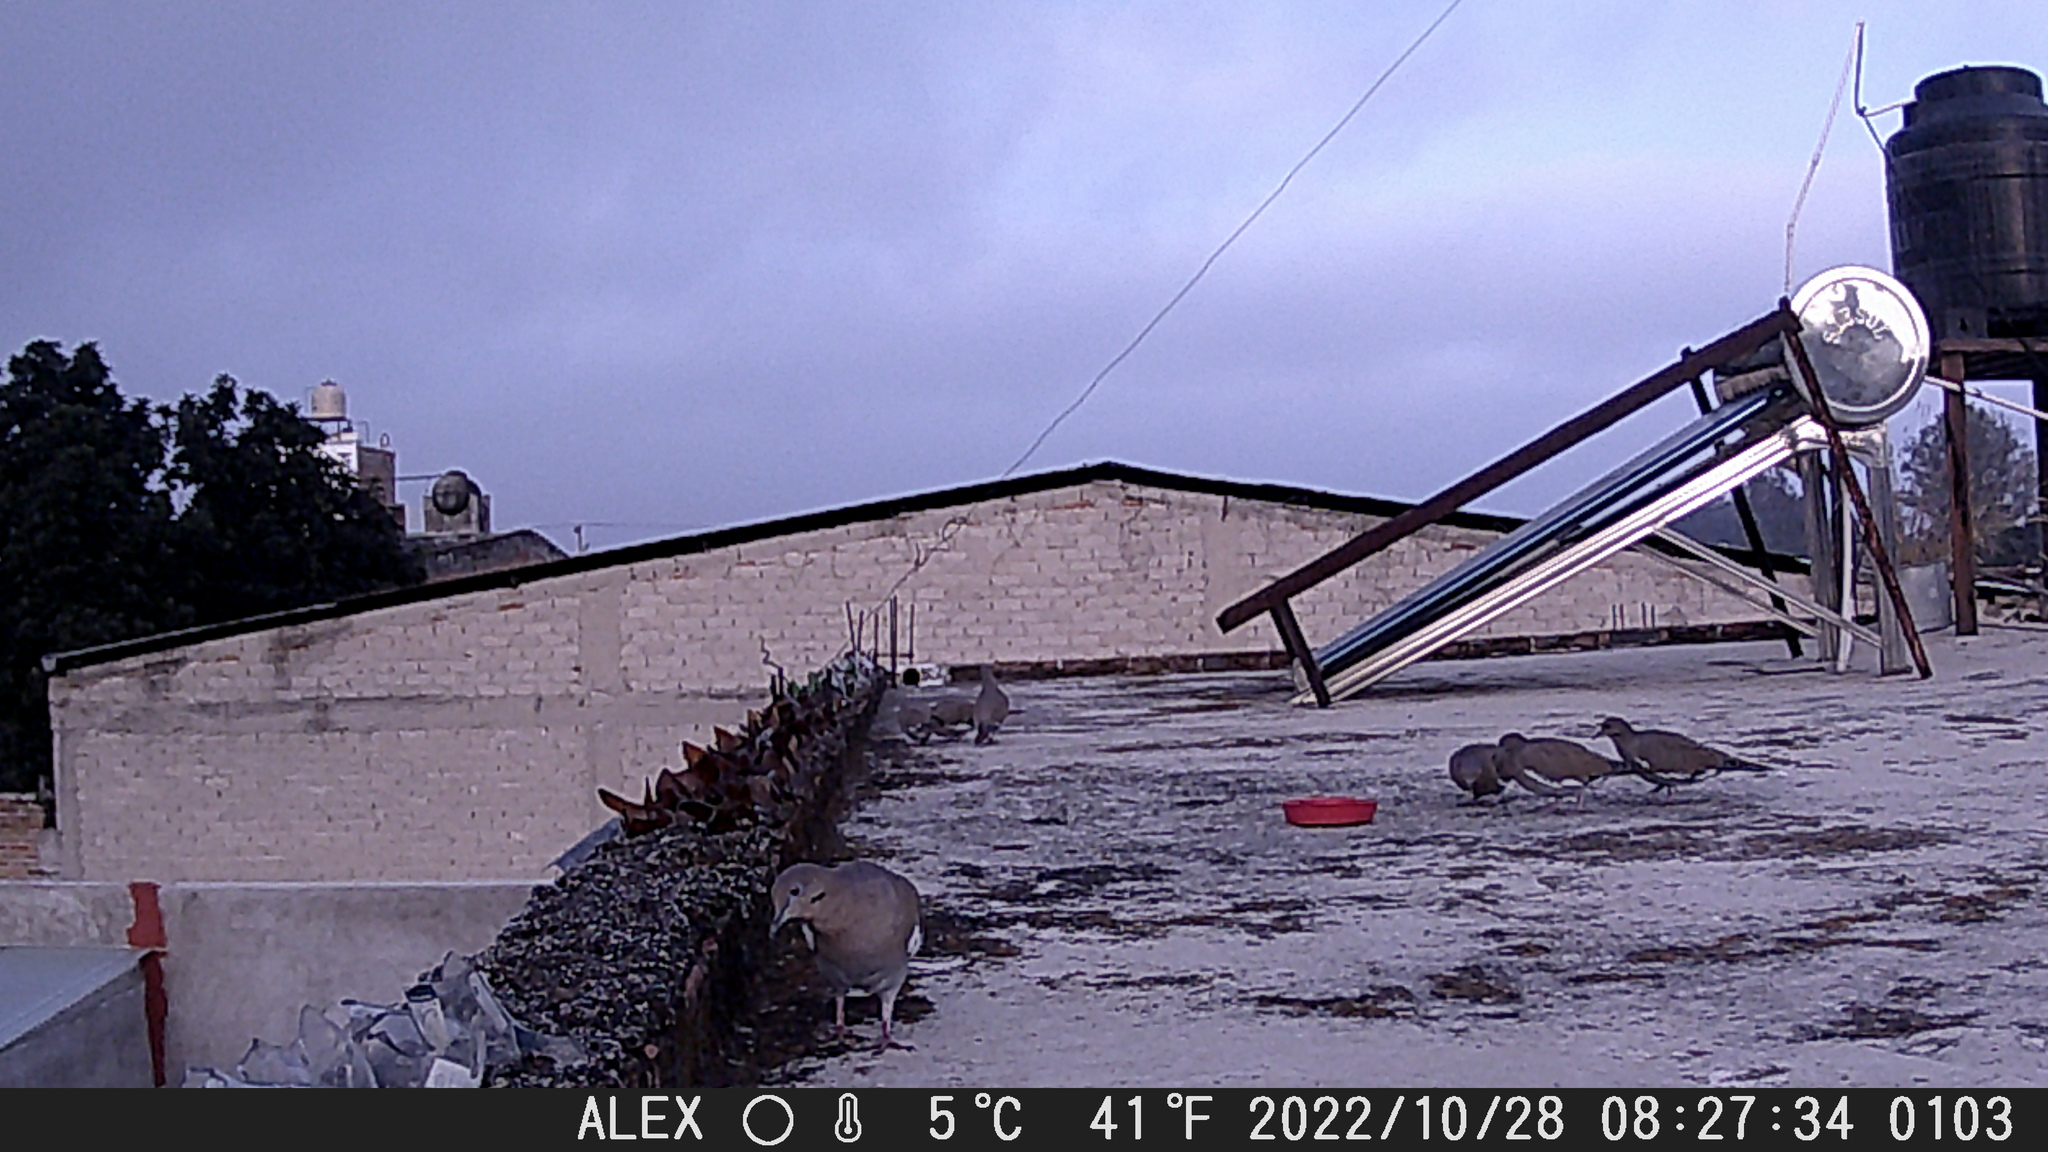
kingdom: Animalia
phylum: Chordata
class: Aves
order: Columbiformes
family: Columbidae
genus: Zenaida
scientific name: Zenaida asiatica
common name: White-winged dove
